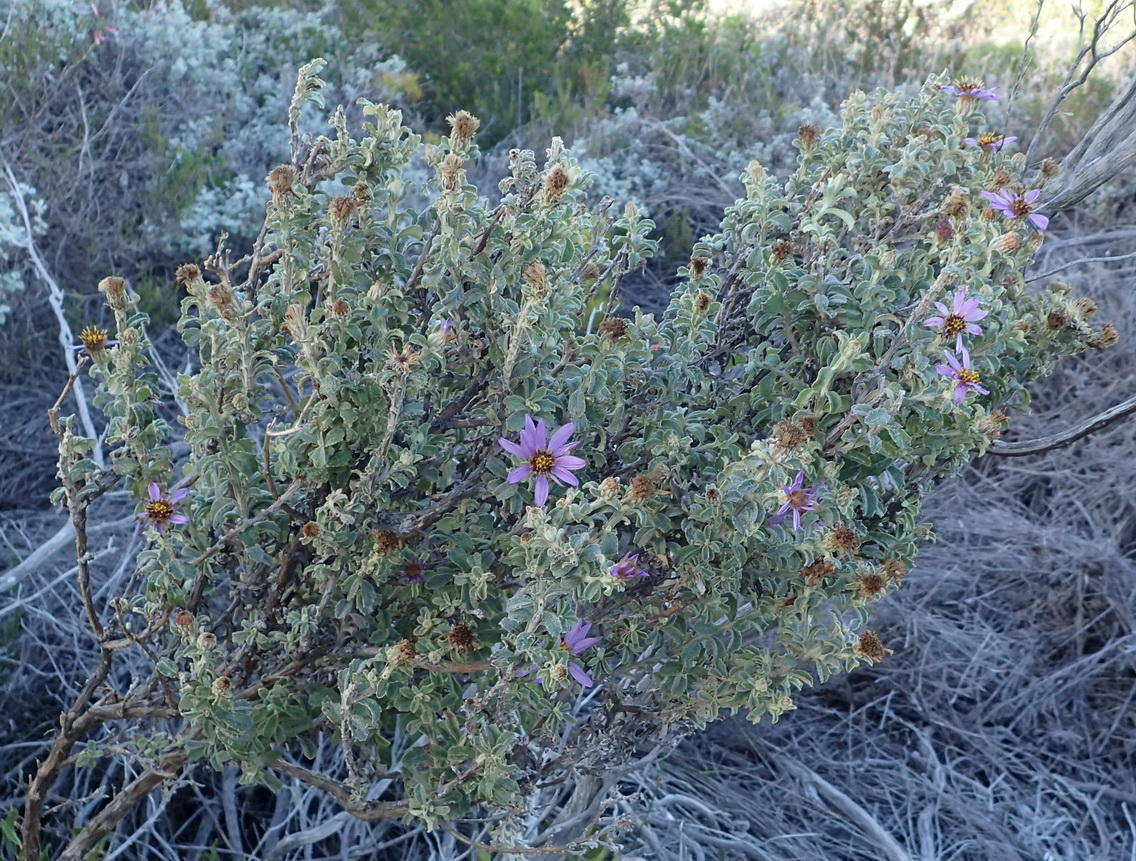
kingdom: Plantae
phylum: Tracheophyta
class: Magnoliopsida
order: Asterales
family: Asteraceae
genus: Printzia
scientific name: Printzia polifolia
